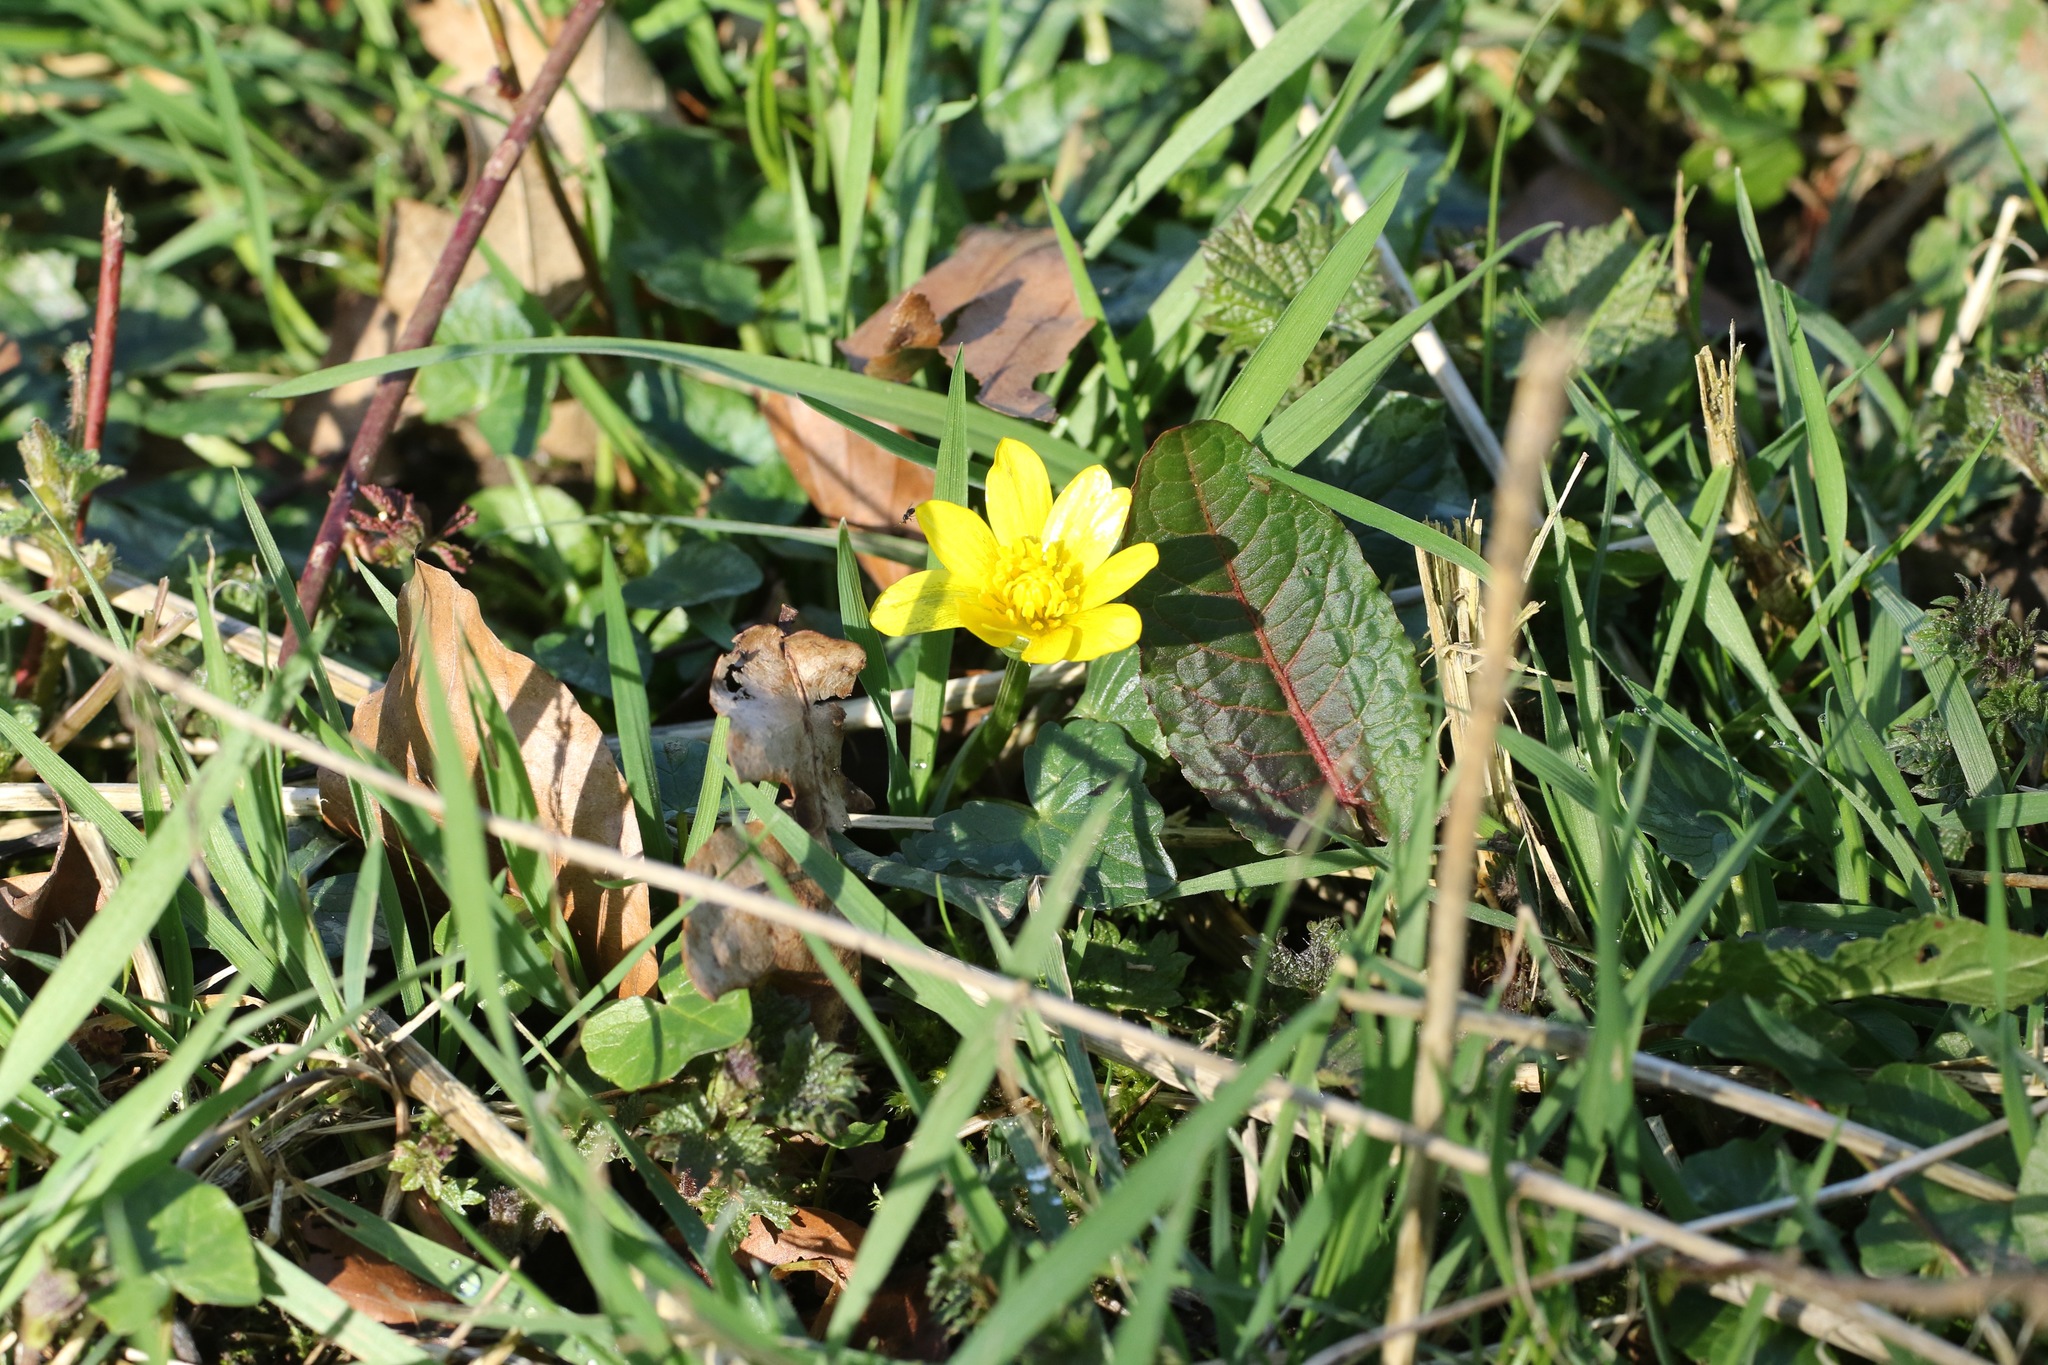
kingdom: Plantae
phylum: Tracheophyta
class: Magnoliopsida
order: Ranunculales
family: Ranunculaceae
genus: Ficaria
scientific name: Ficaria verna
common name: Lesser celandine
